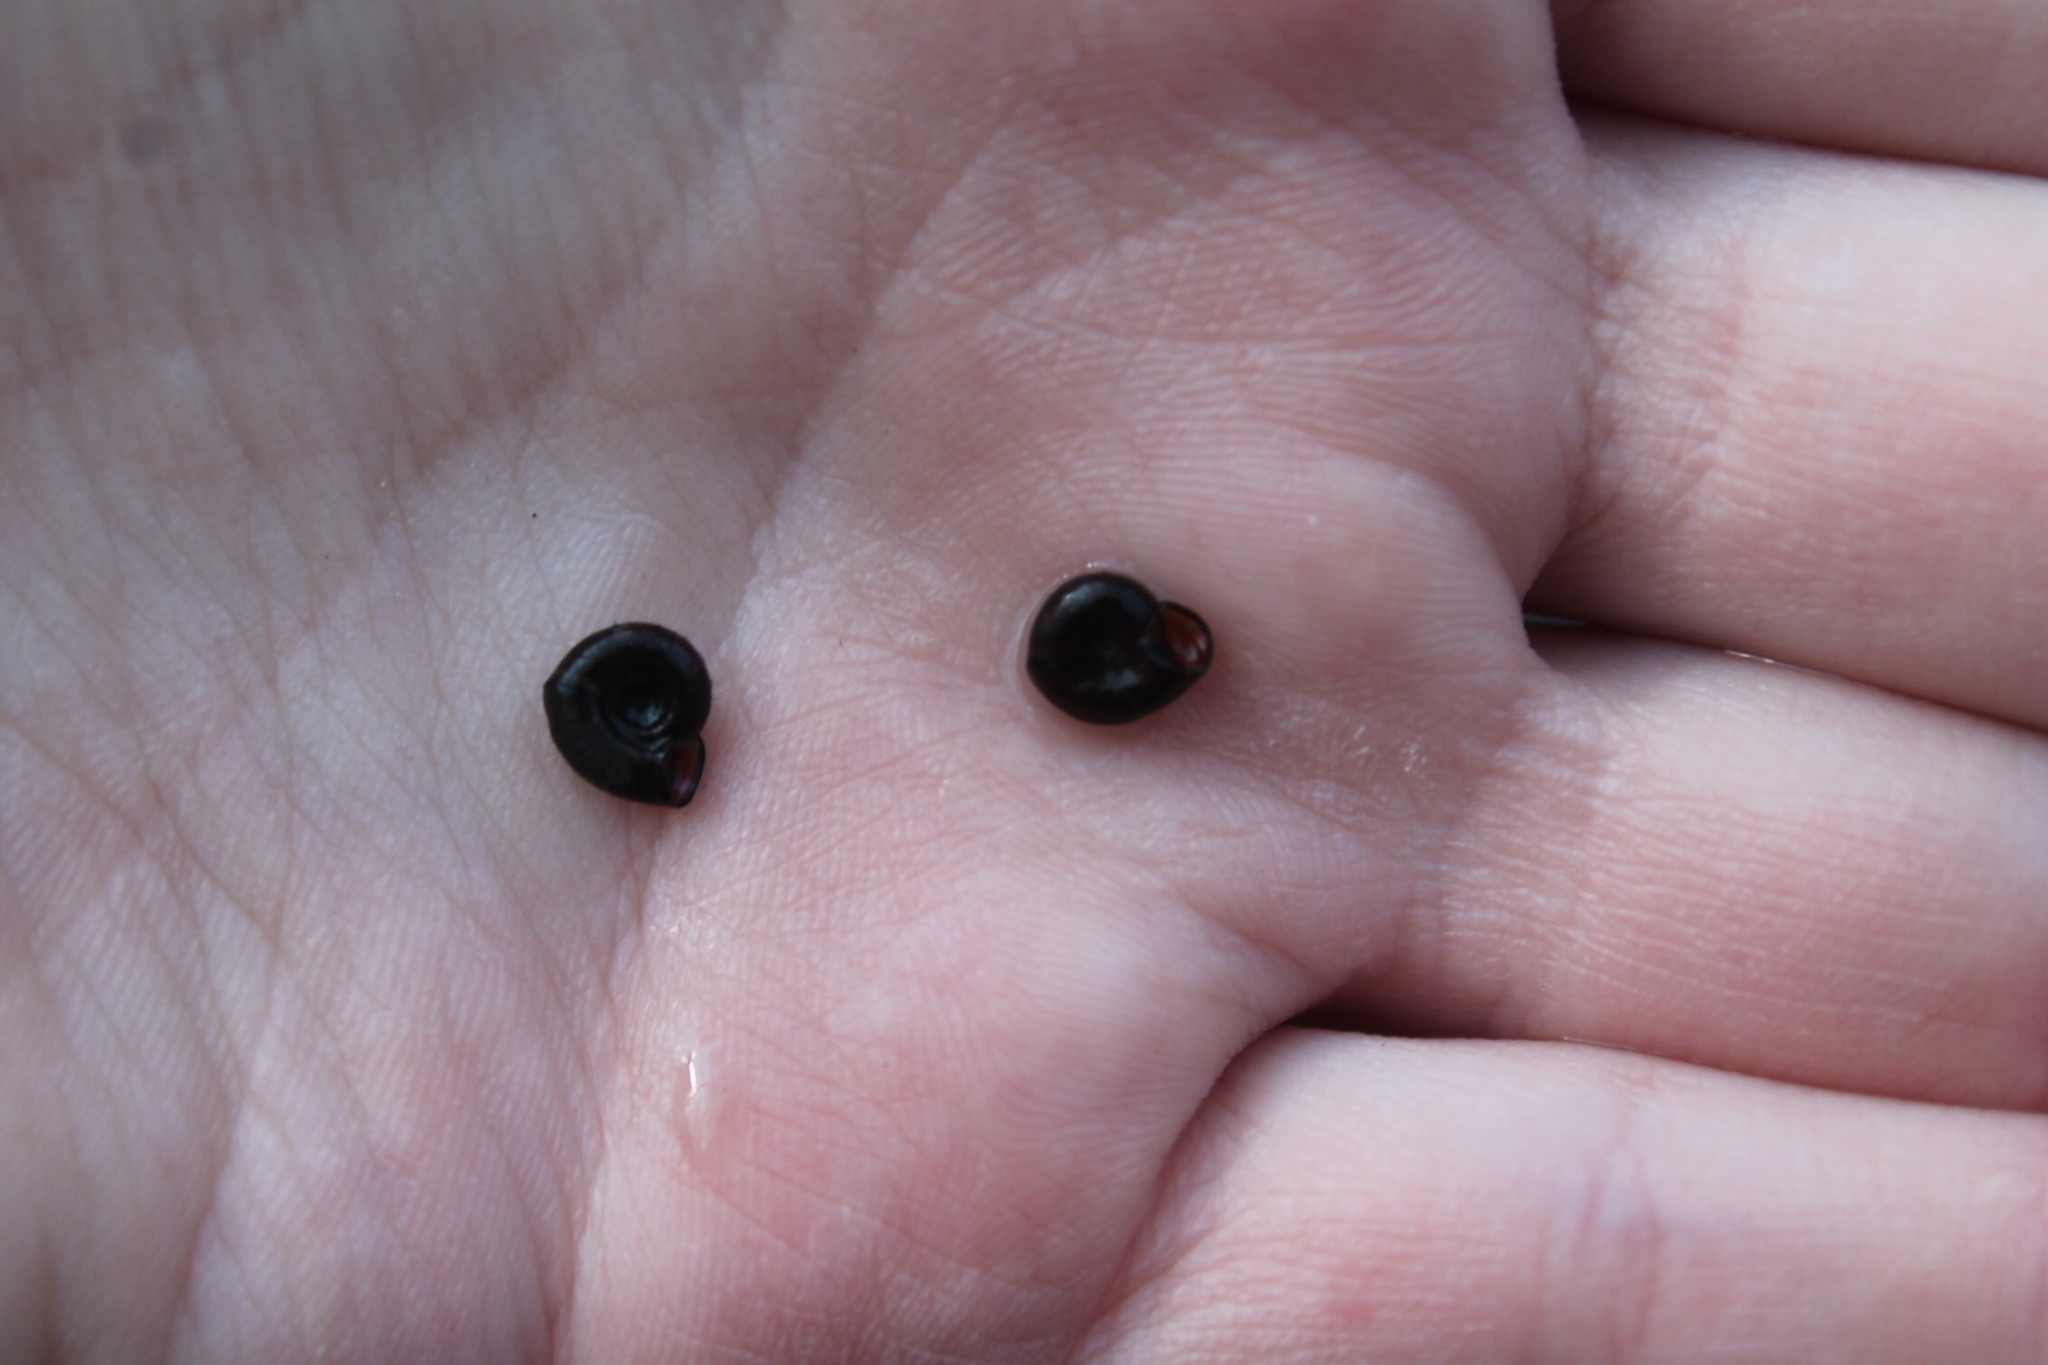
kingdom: Animalia
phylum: Mollusca
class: Gastropoda
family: Planorbidae
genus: Planorbula
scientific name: Planorbula armigera
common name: Thicklip ramshorn
